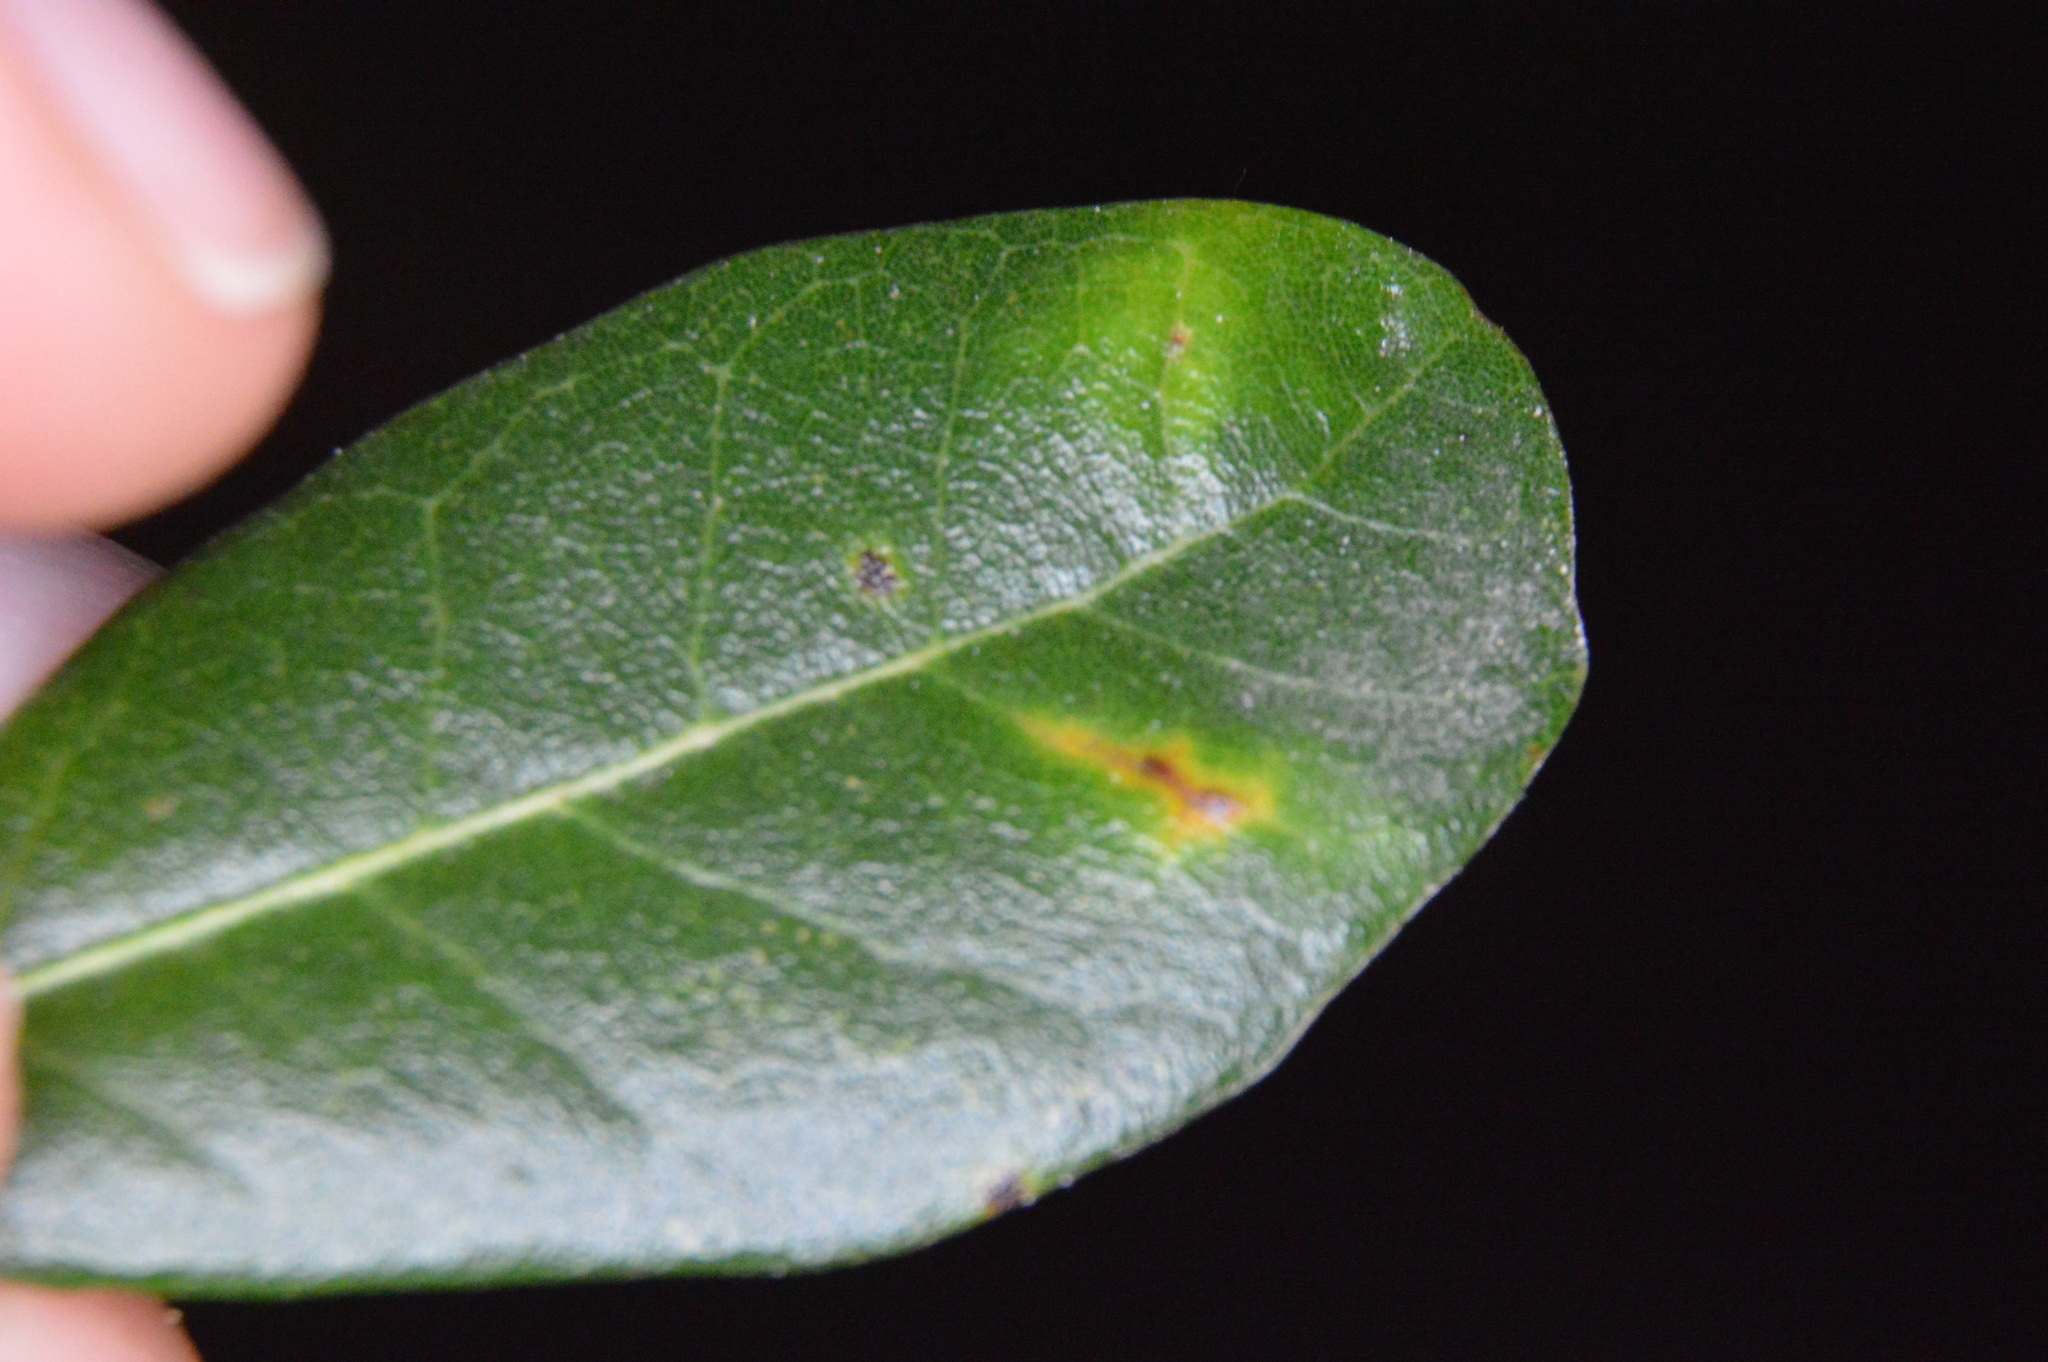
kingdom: Animalia
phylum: Arthropoda
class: Insecta
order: Hymenoptera
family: Cynipidae
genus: Belonocnema
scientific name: Belonocnema kinseyi
